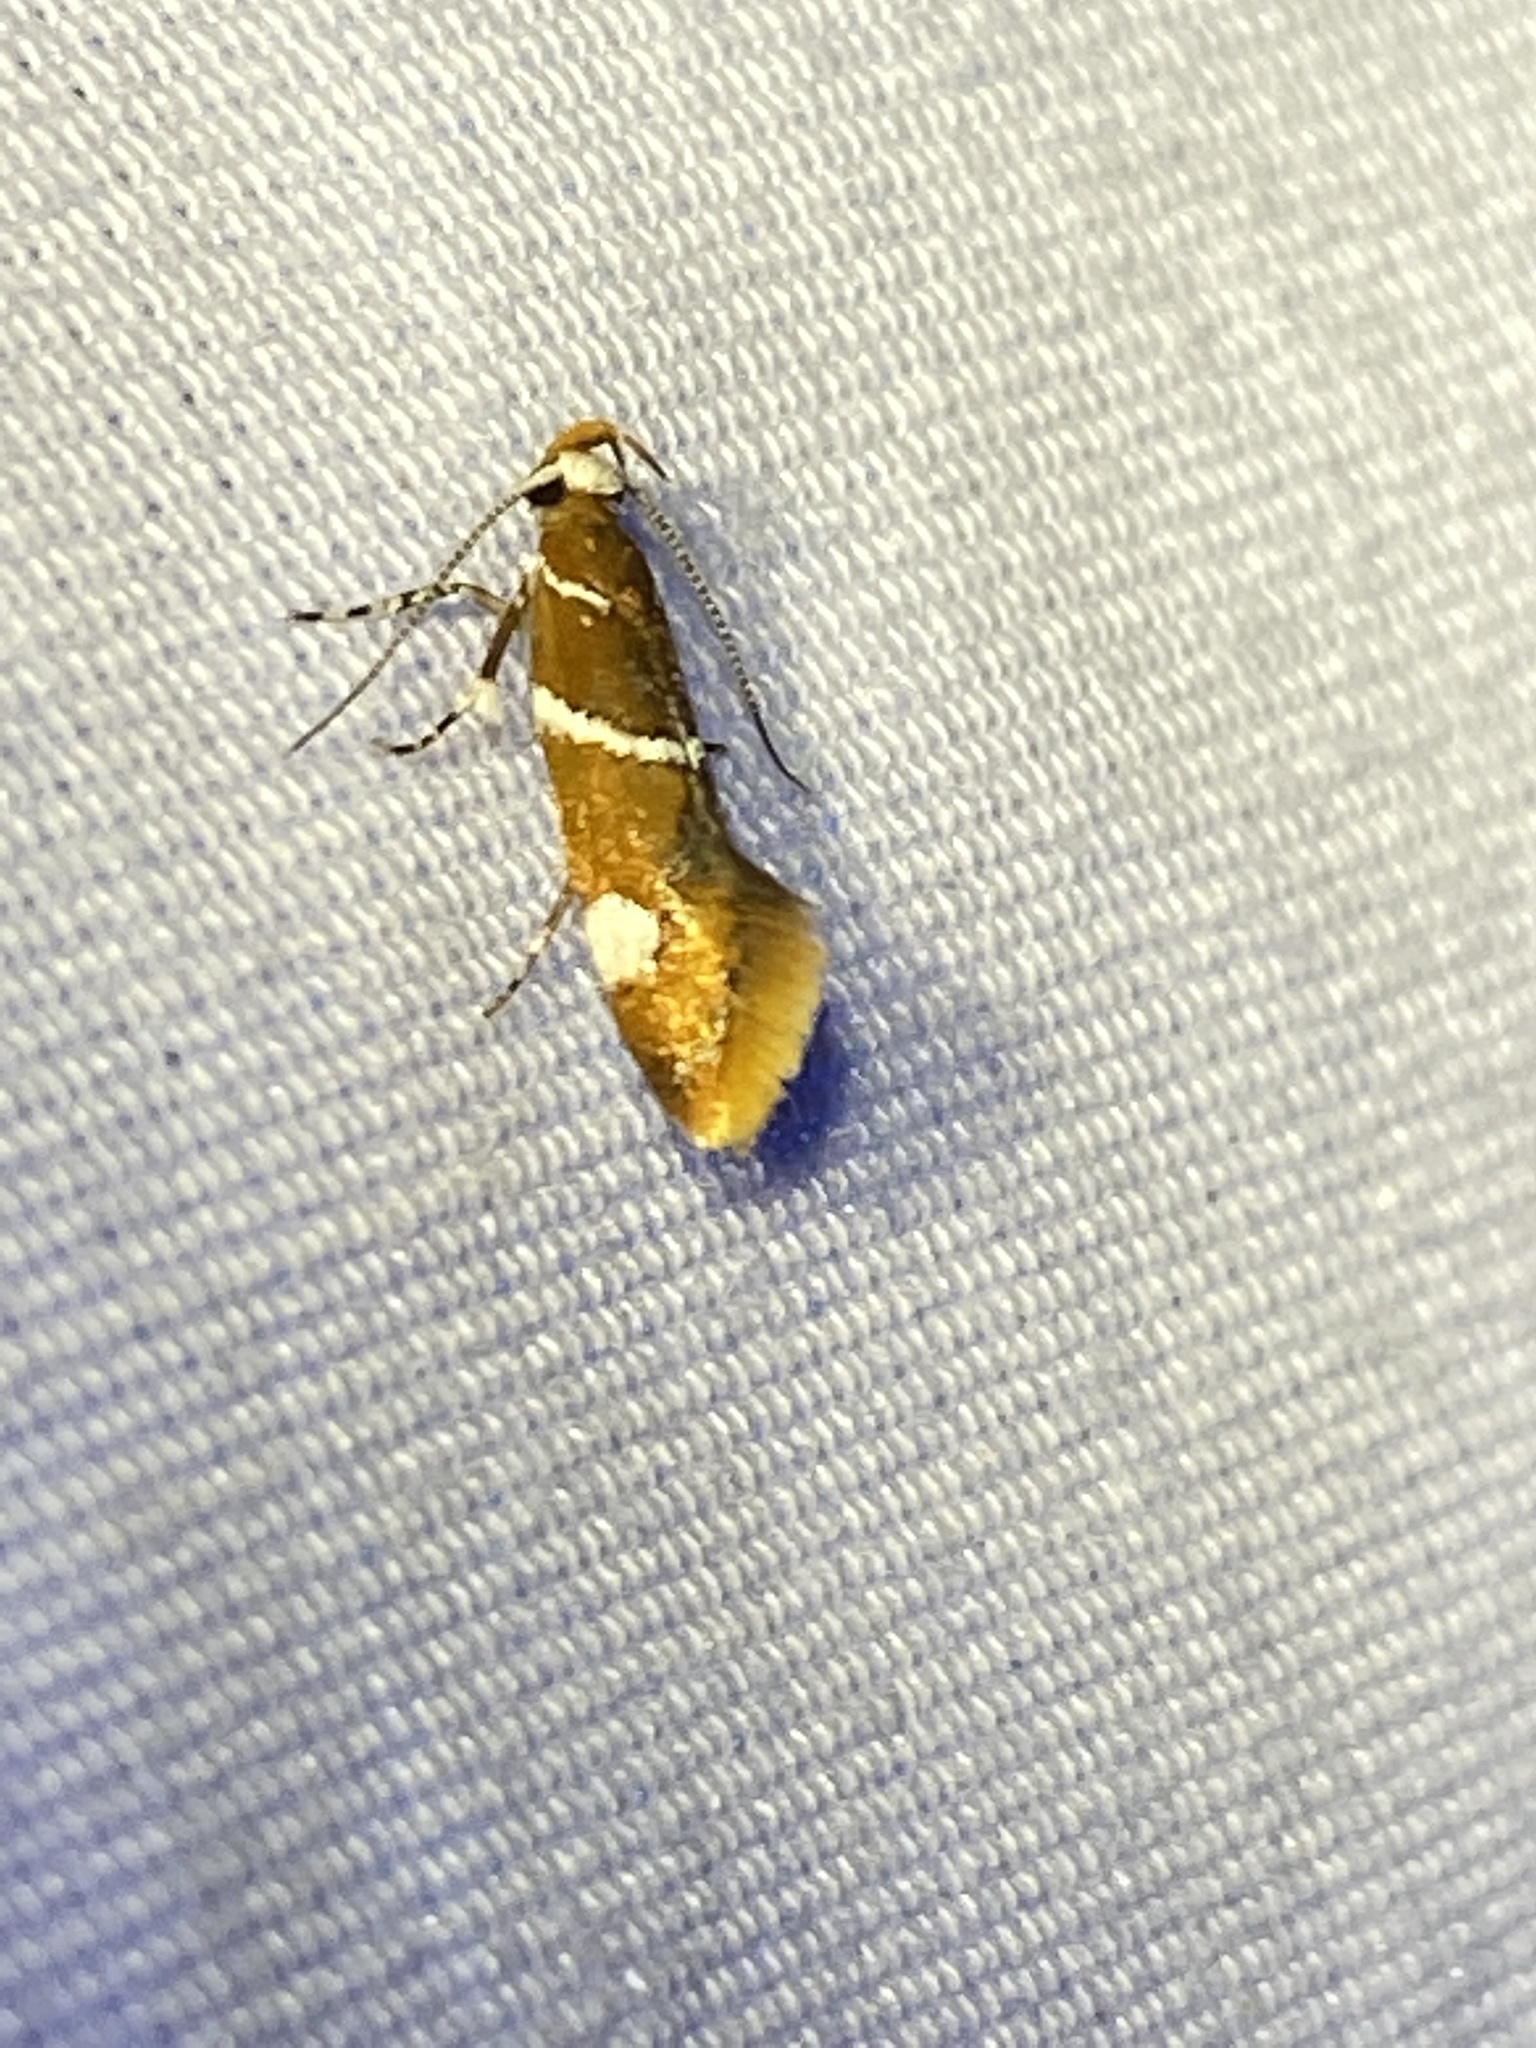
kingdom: Animalia
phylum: Arthropoda
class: Insecta
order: Lepidoptera
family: Oecophoridae
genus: Promalactis
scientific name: Promalactis suzukiella
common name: Moth
